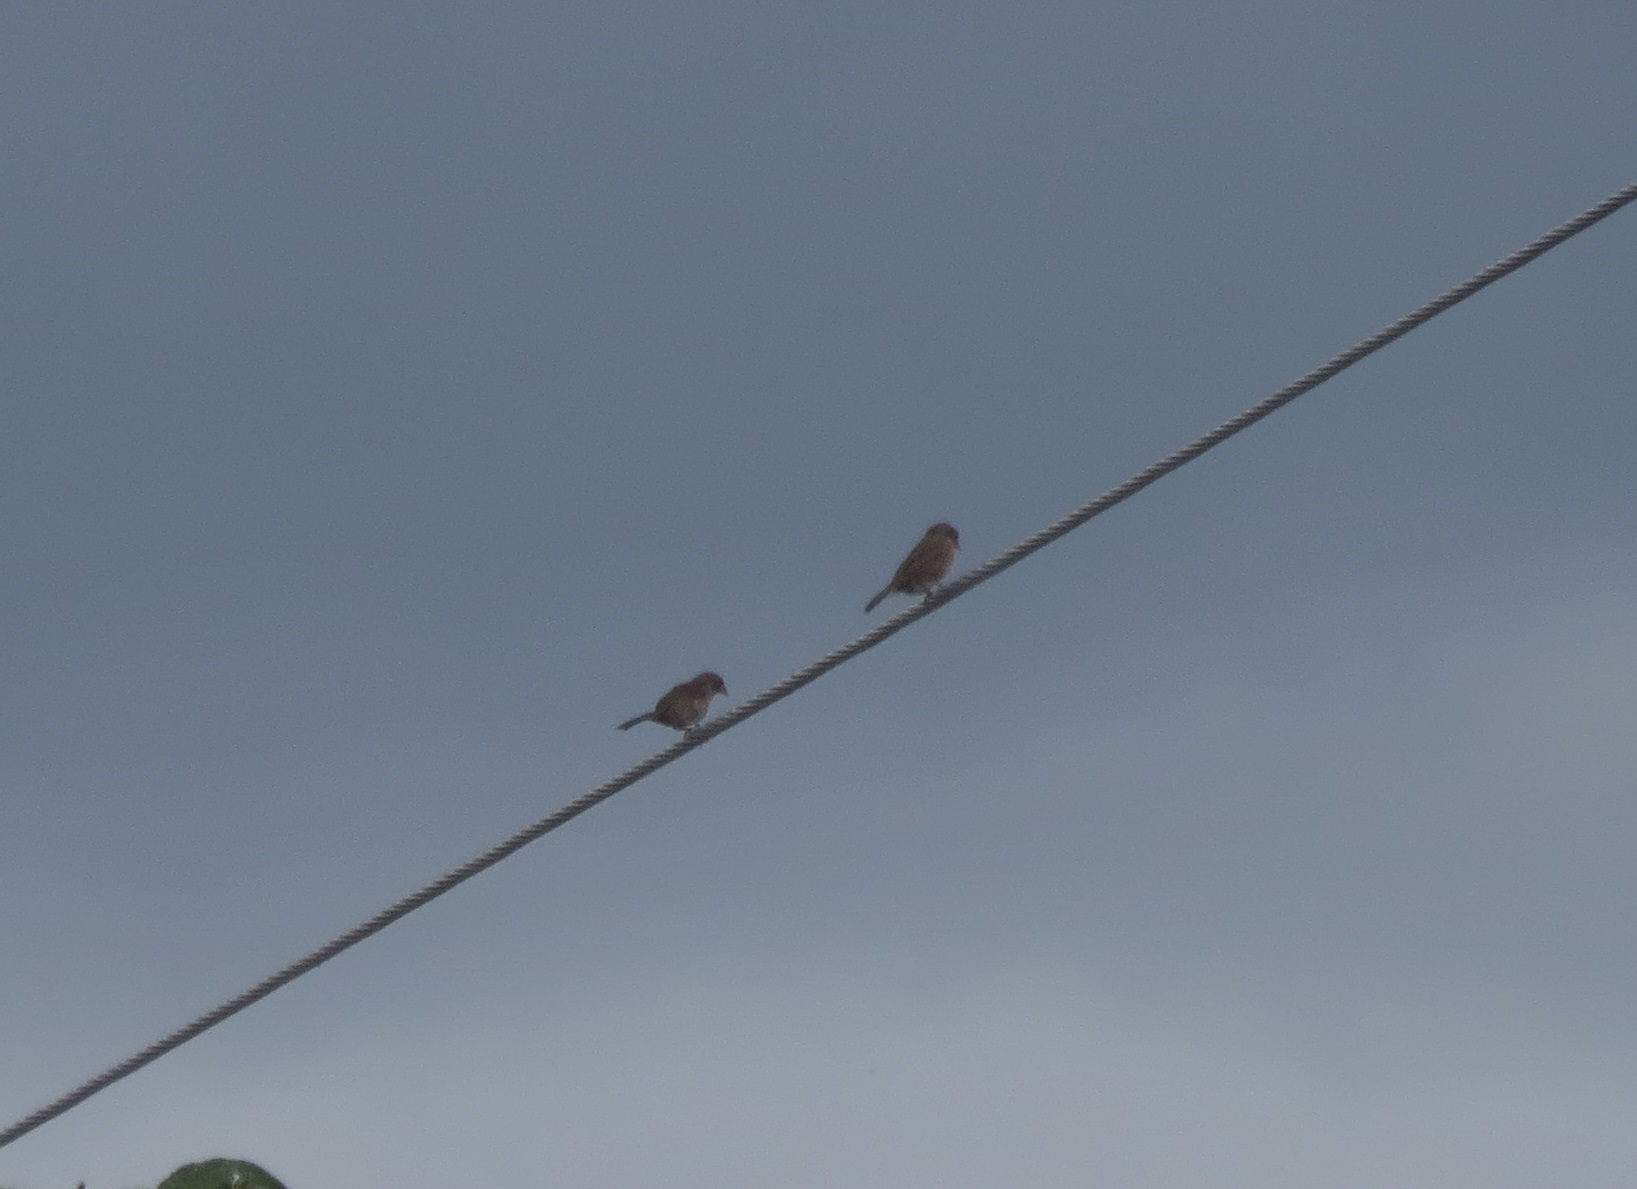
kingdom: Animalia
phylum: Chordata
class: Aves
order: Passeriformes
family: Thraupidae
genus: Volatinia
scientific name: Volatinia jacarina
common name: Blue-black grassquit
